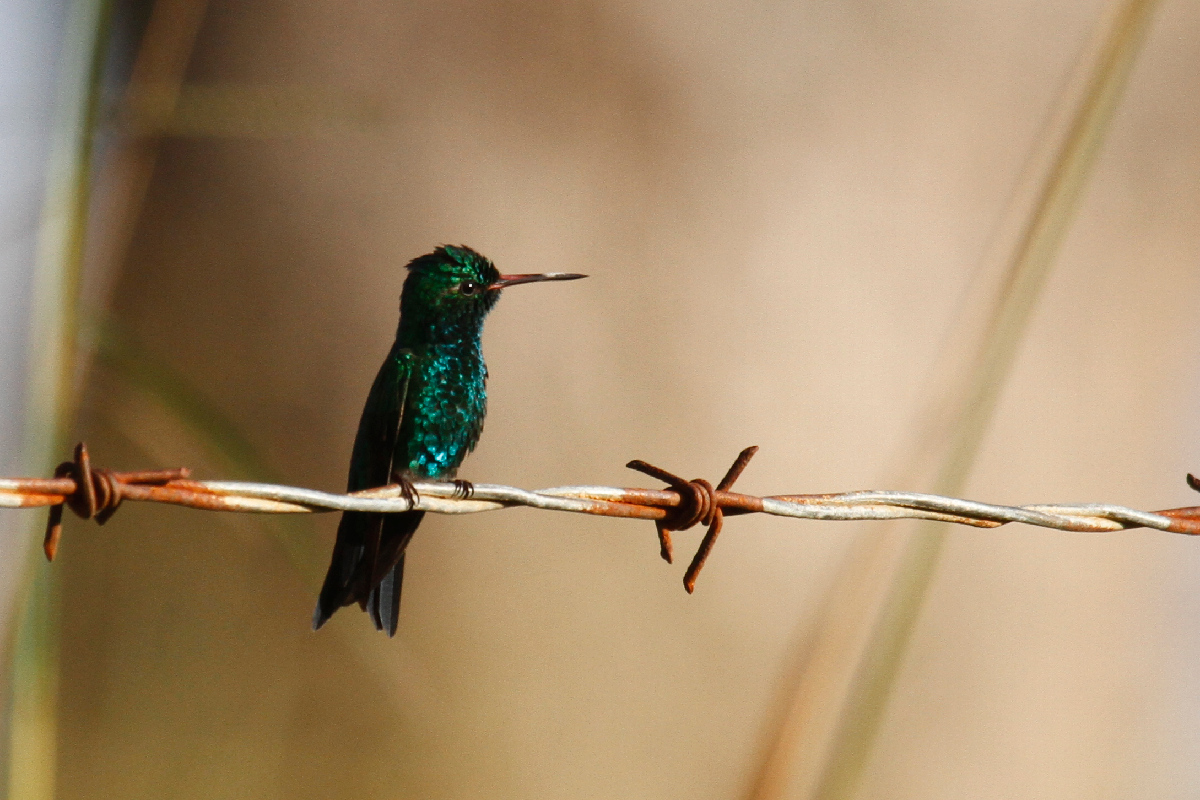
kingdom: Animalia
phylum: Chordata
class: Aves
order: Apodiformes
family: Trochilidae
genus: Cynanthus
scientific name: Cynanthus canivetii
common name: Canivet's emerald
